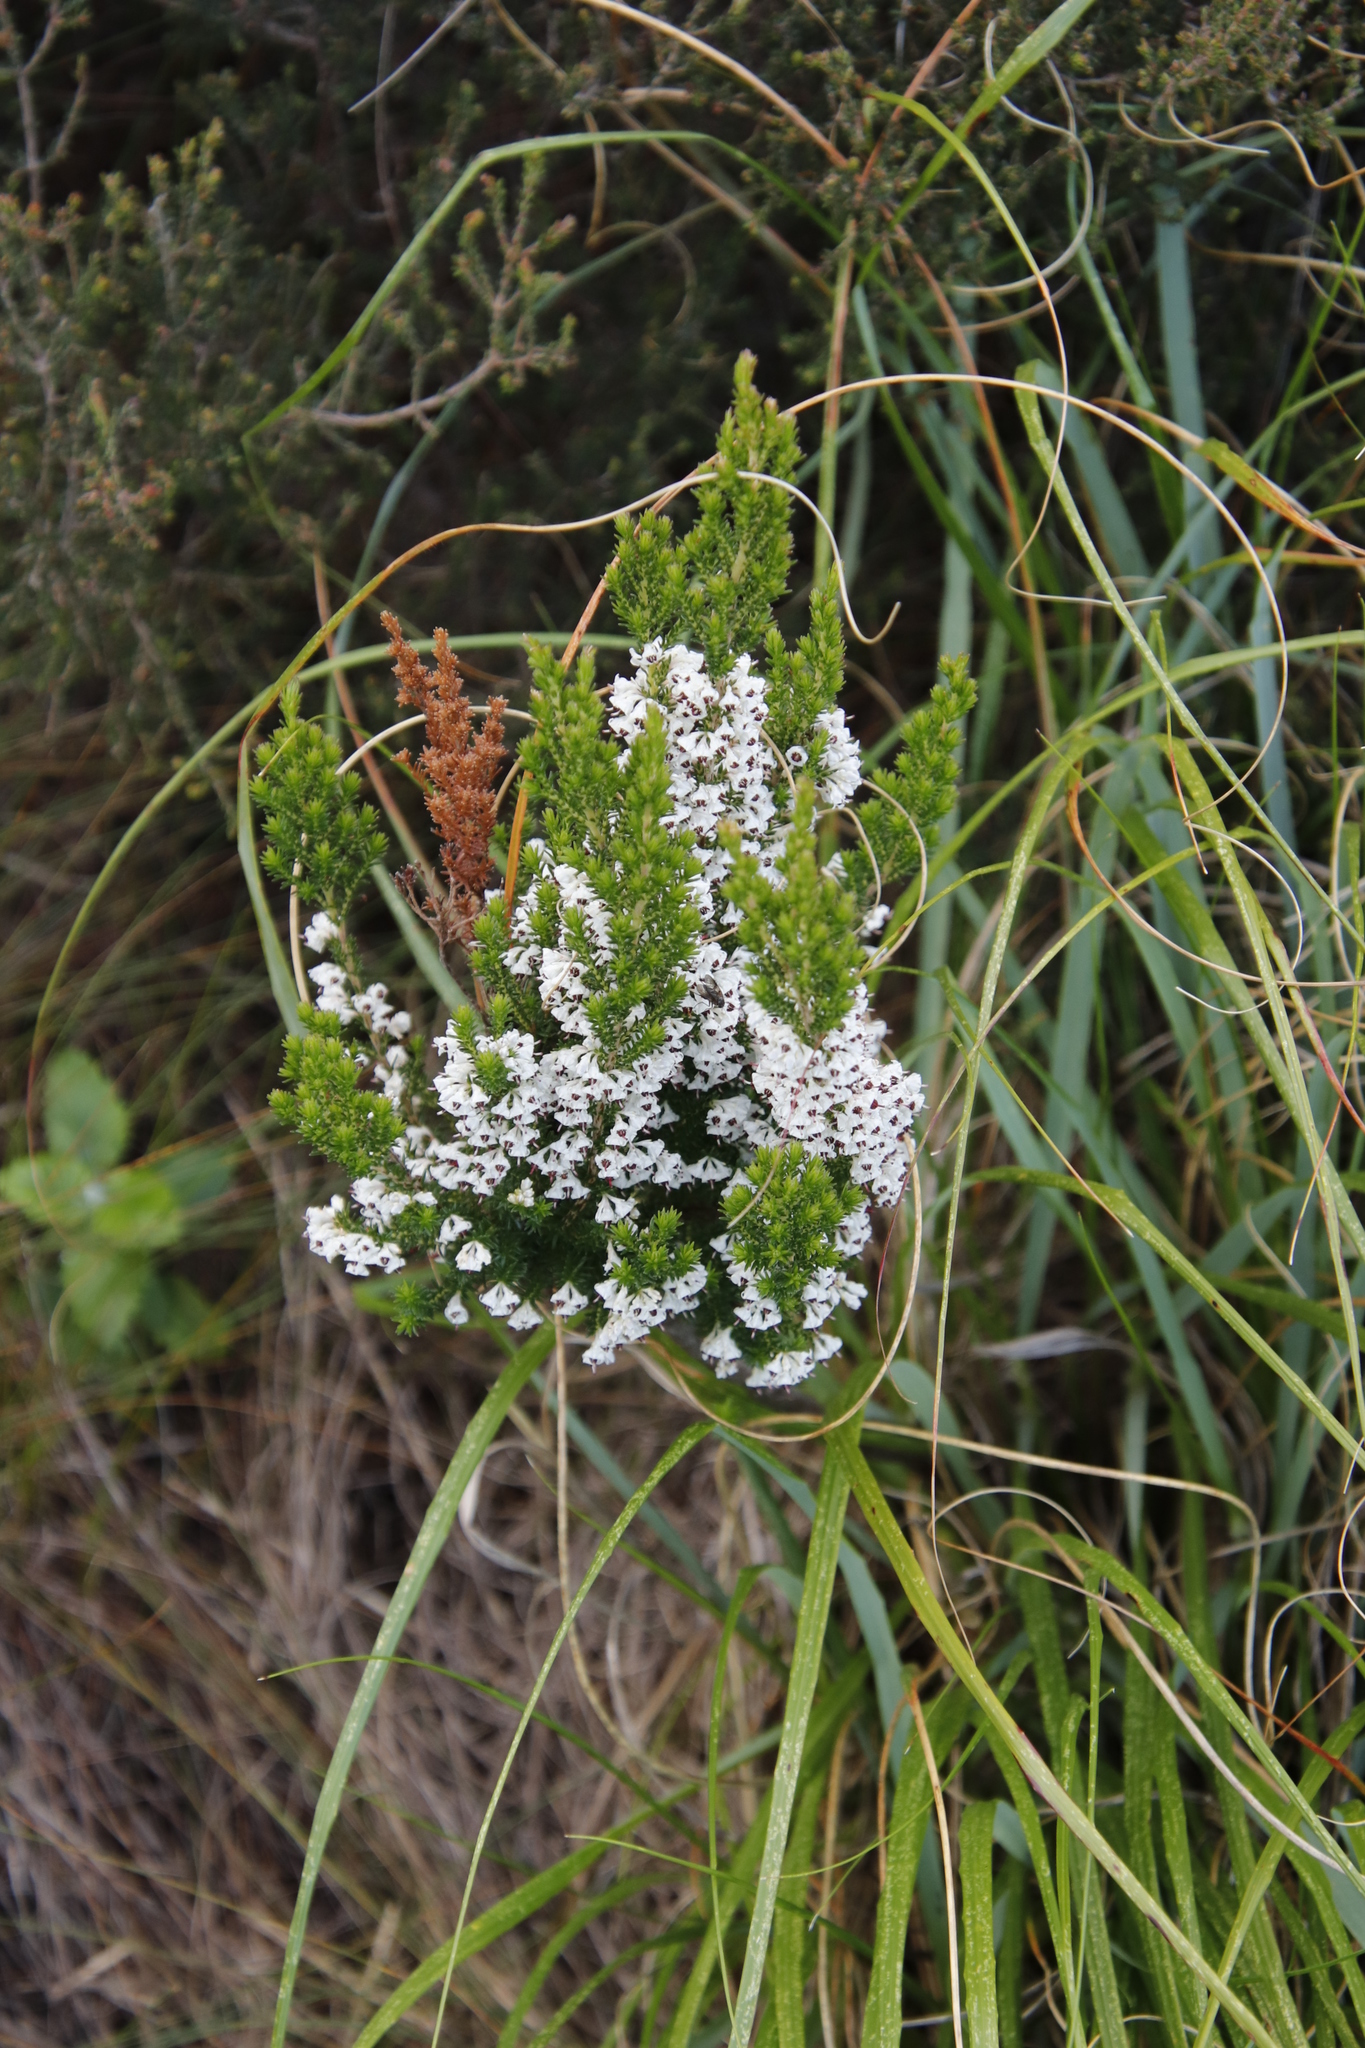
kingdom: Plantae
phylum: Tracheophyta
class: Magnoliopsida
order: Ericales
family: Ericaceae
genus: Erica
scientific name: Erica calycina
